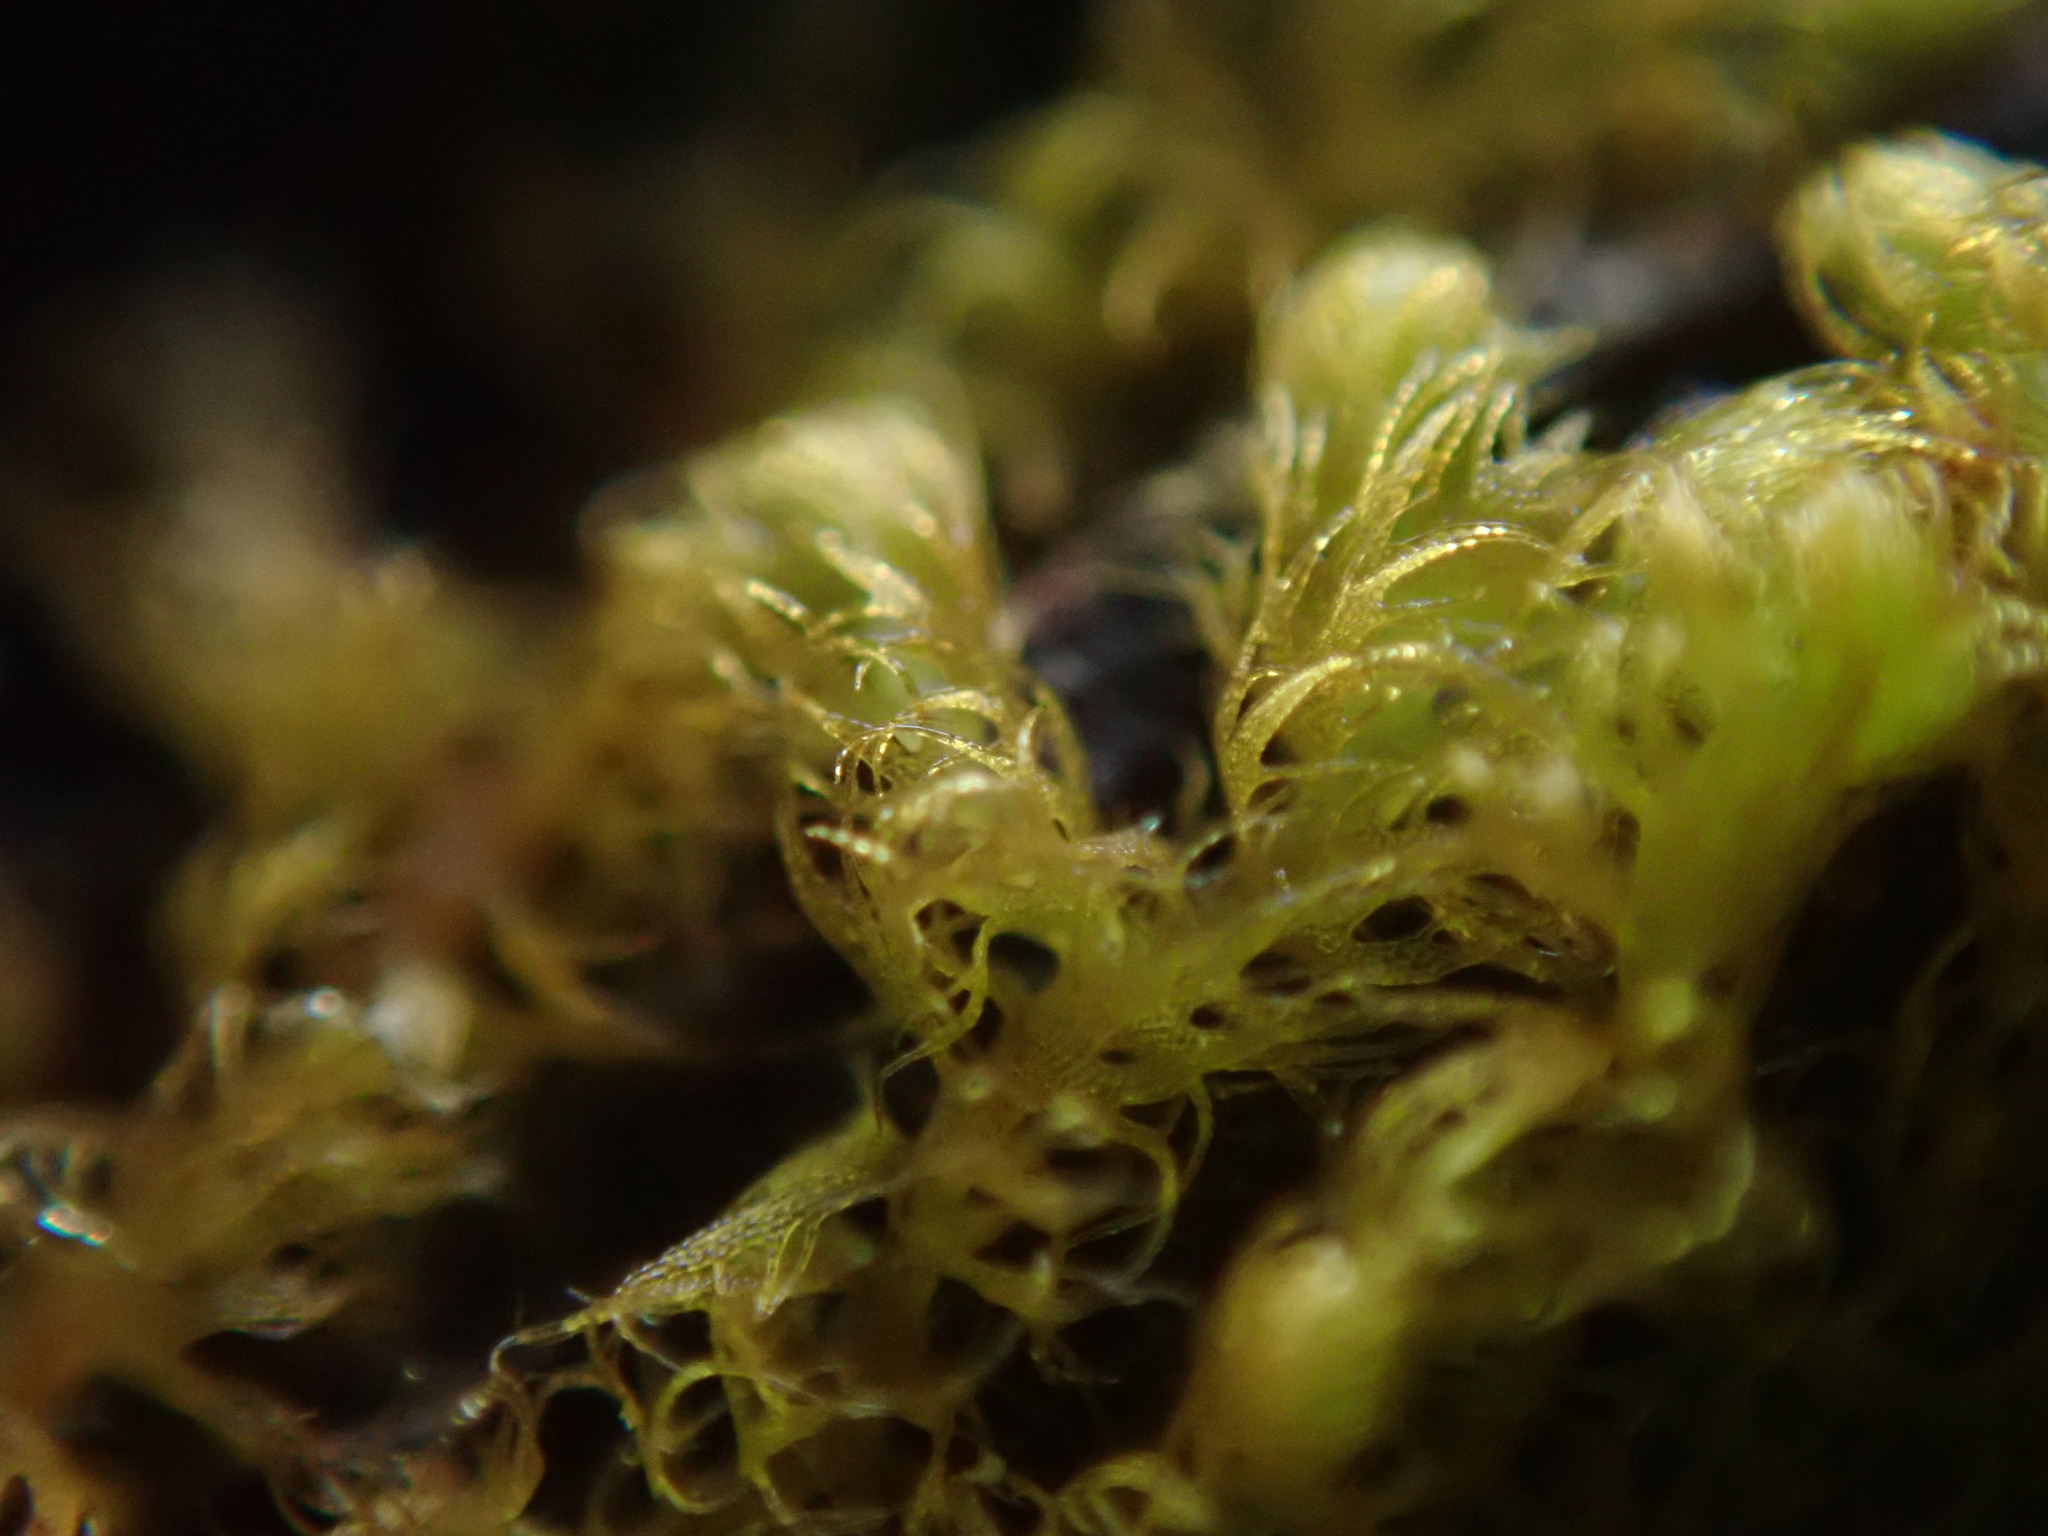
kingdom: Plantae
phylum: Marchantiophyta
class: Jungermanniopsida
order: Ptilidiales
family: Ptilidiaceae
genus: Ptilidium
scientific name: Ptilidium californicum
